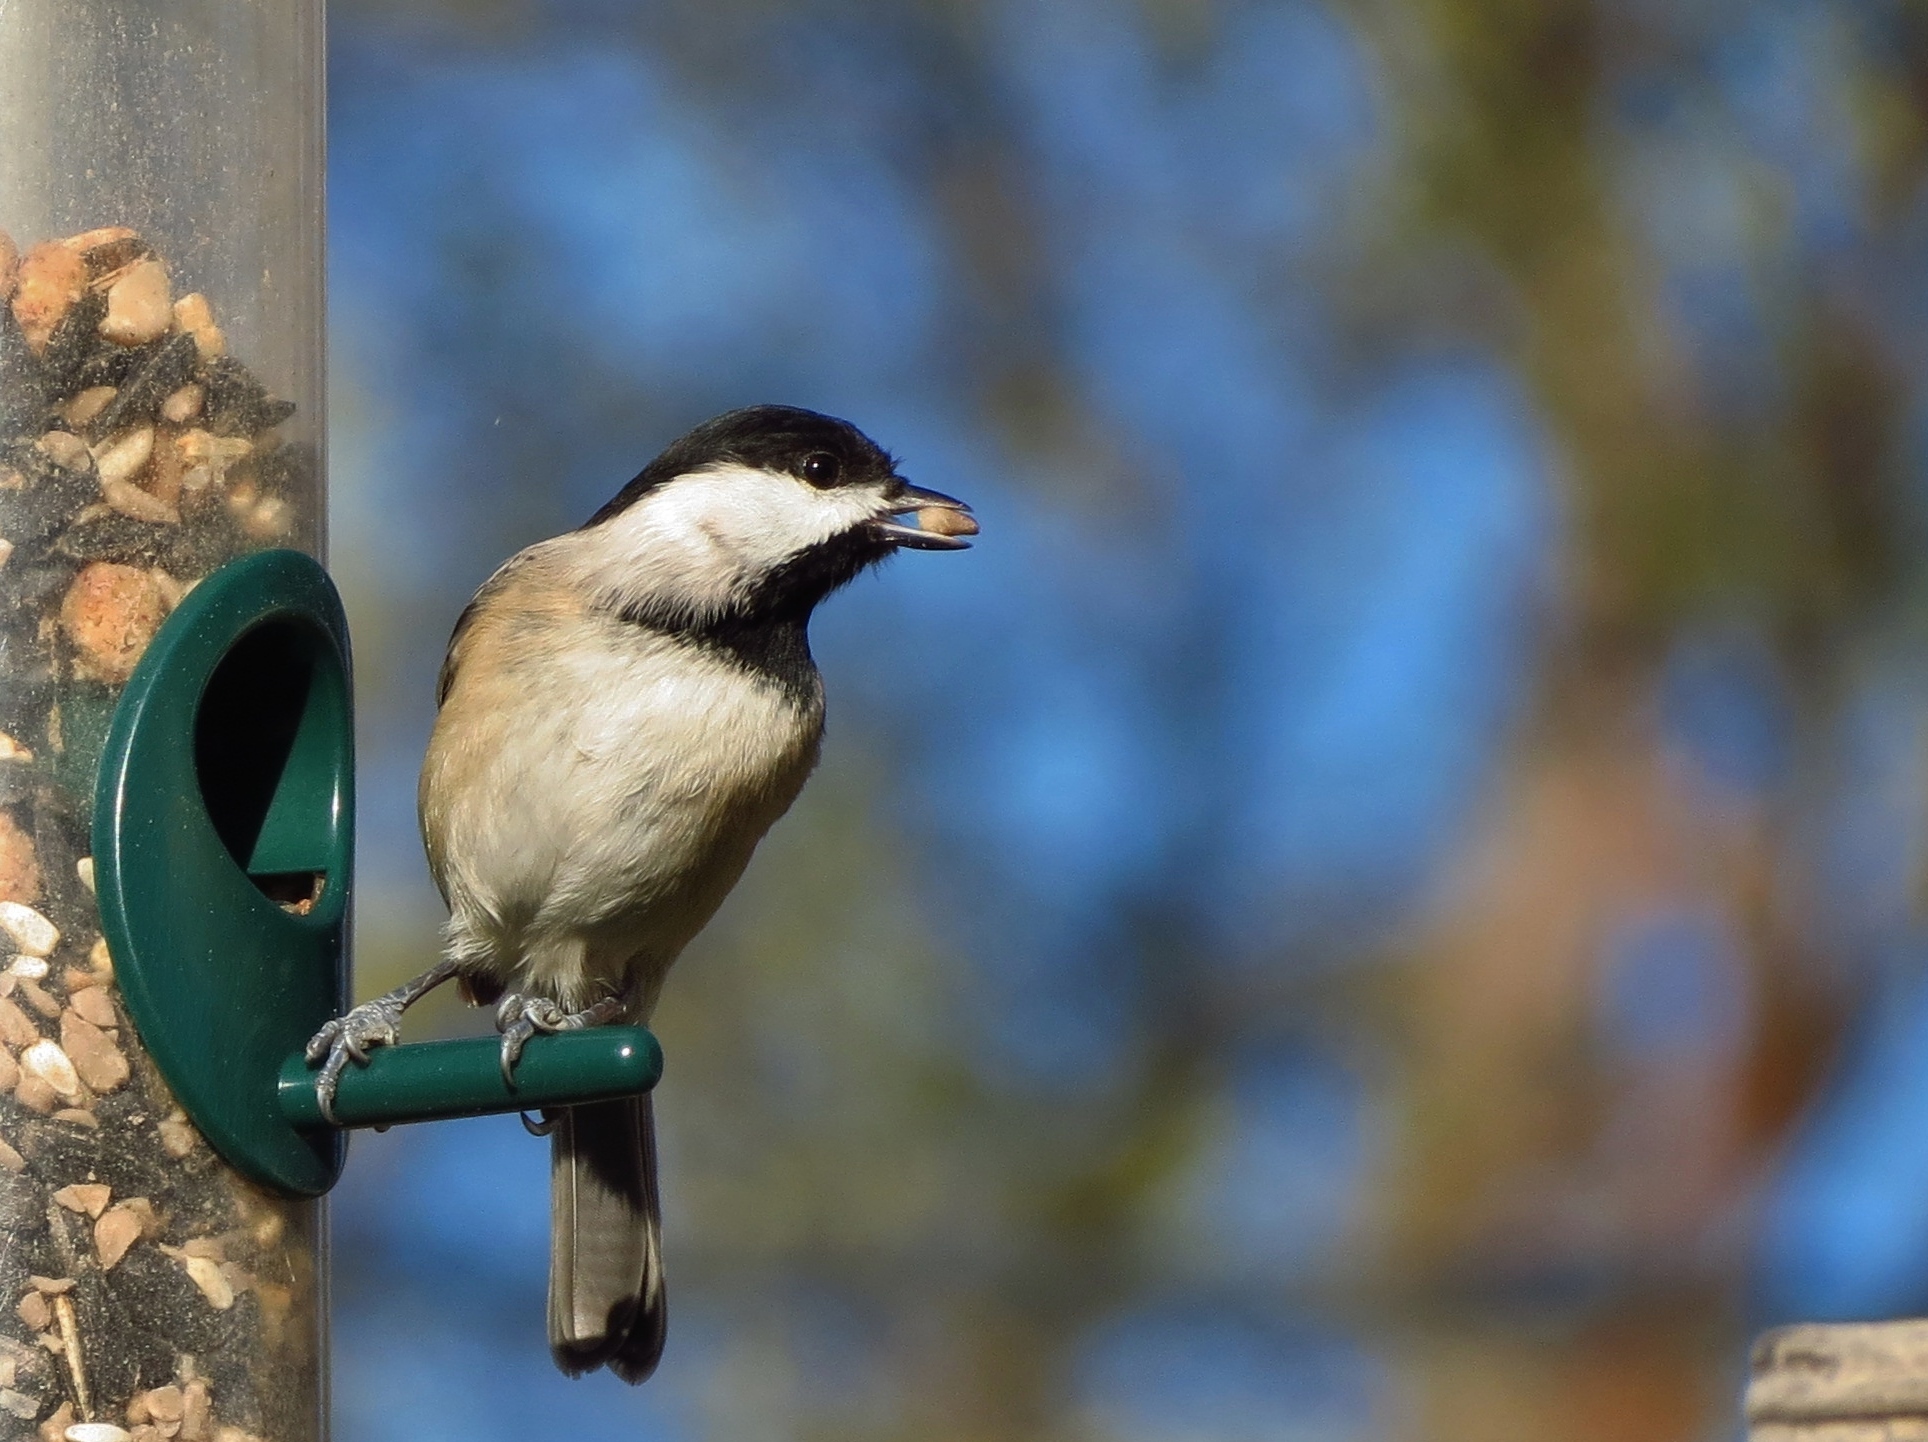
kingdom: Animalia
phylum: Chordata
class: Aves
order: Passeriformes
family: Paridae
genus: Poecile
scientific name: Poecile carolinensis
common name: Carolina chickadee
